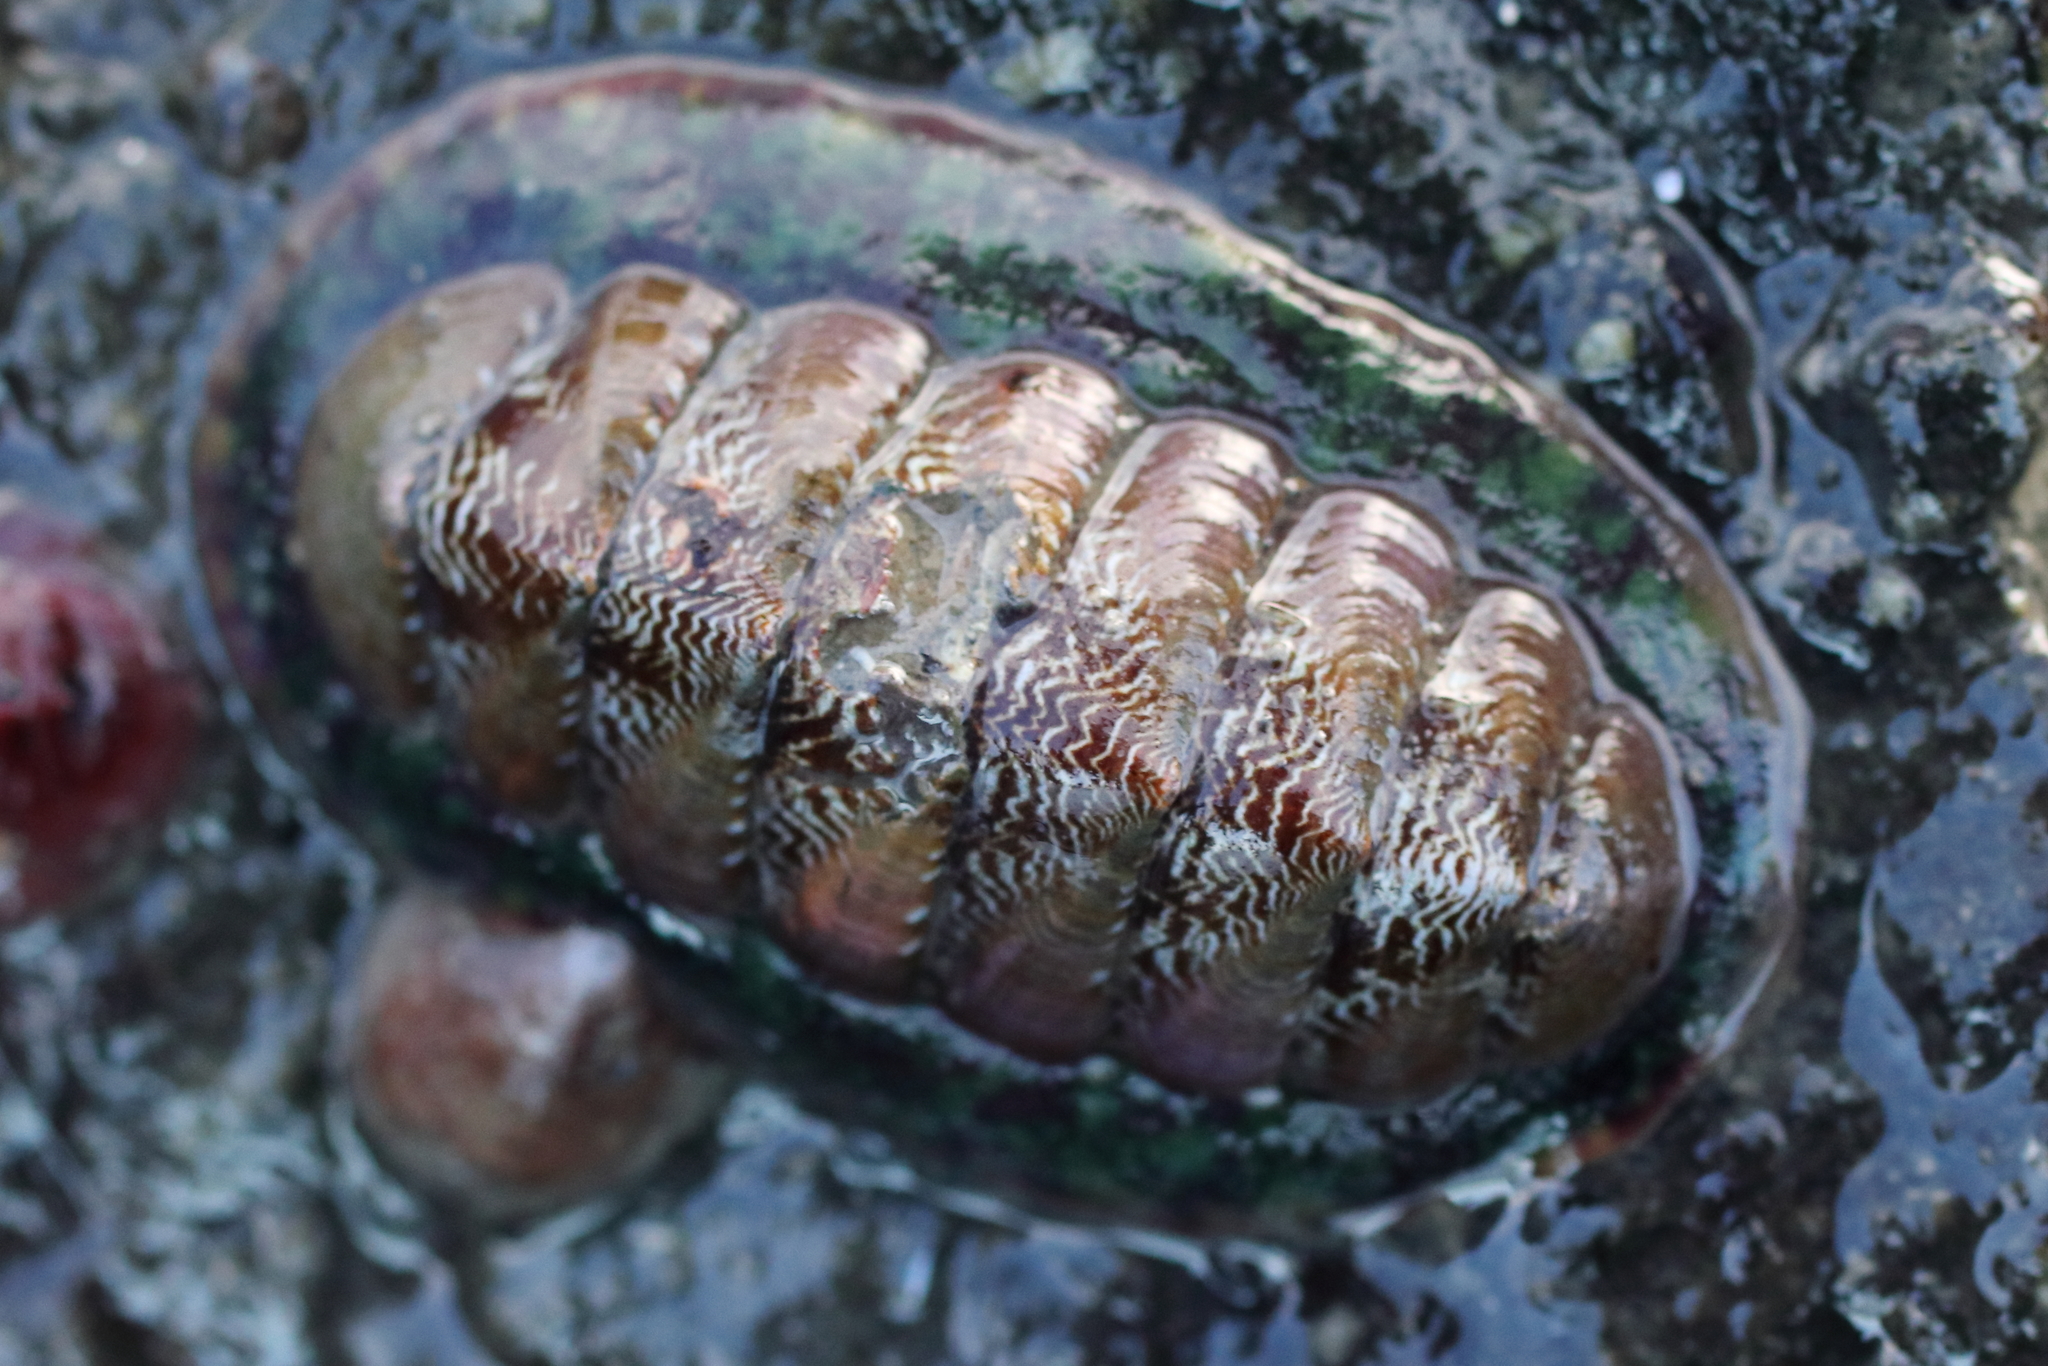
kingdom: Animalia
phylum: Mollusca
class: Polyplacophora
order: Chitonida
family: Tonicellidae
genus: Tonicella
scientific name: Tonicella insignis
